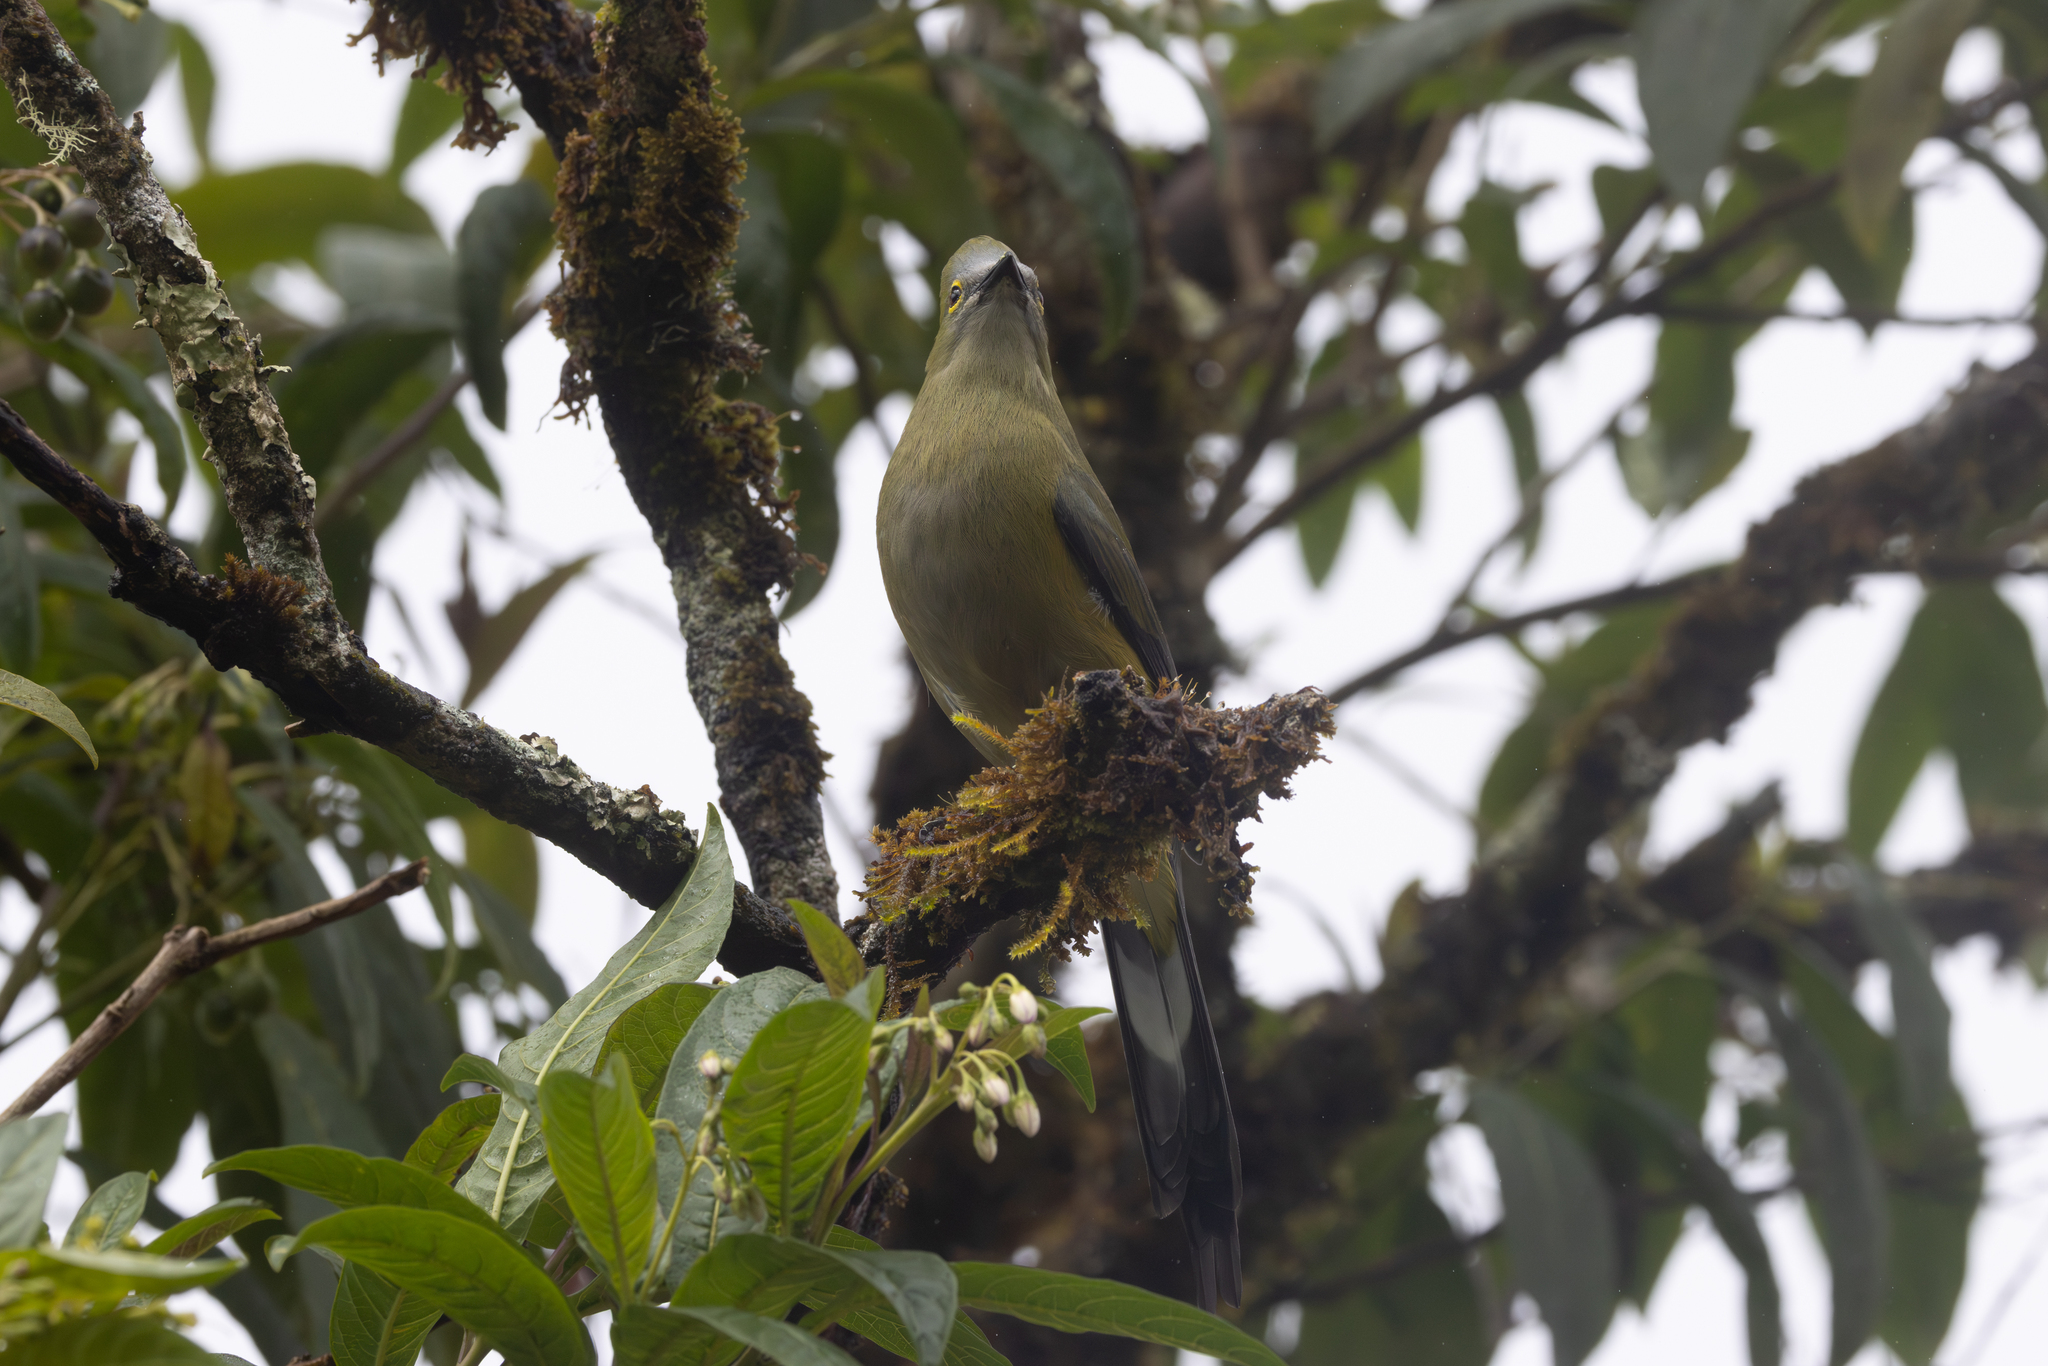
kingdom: Animalia
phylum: Chordata
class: Aves
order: Passeriformes
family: Ptilogonatidae
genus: Ptilogonys
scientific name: Ptilogonys caudatus
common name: Long-tailed silky-flycatcher
